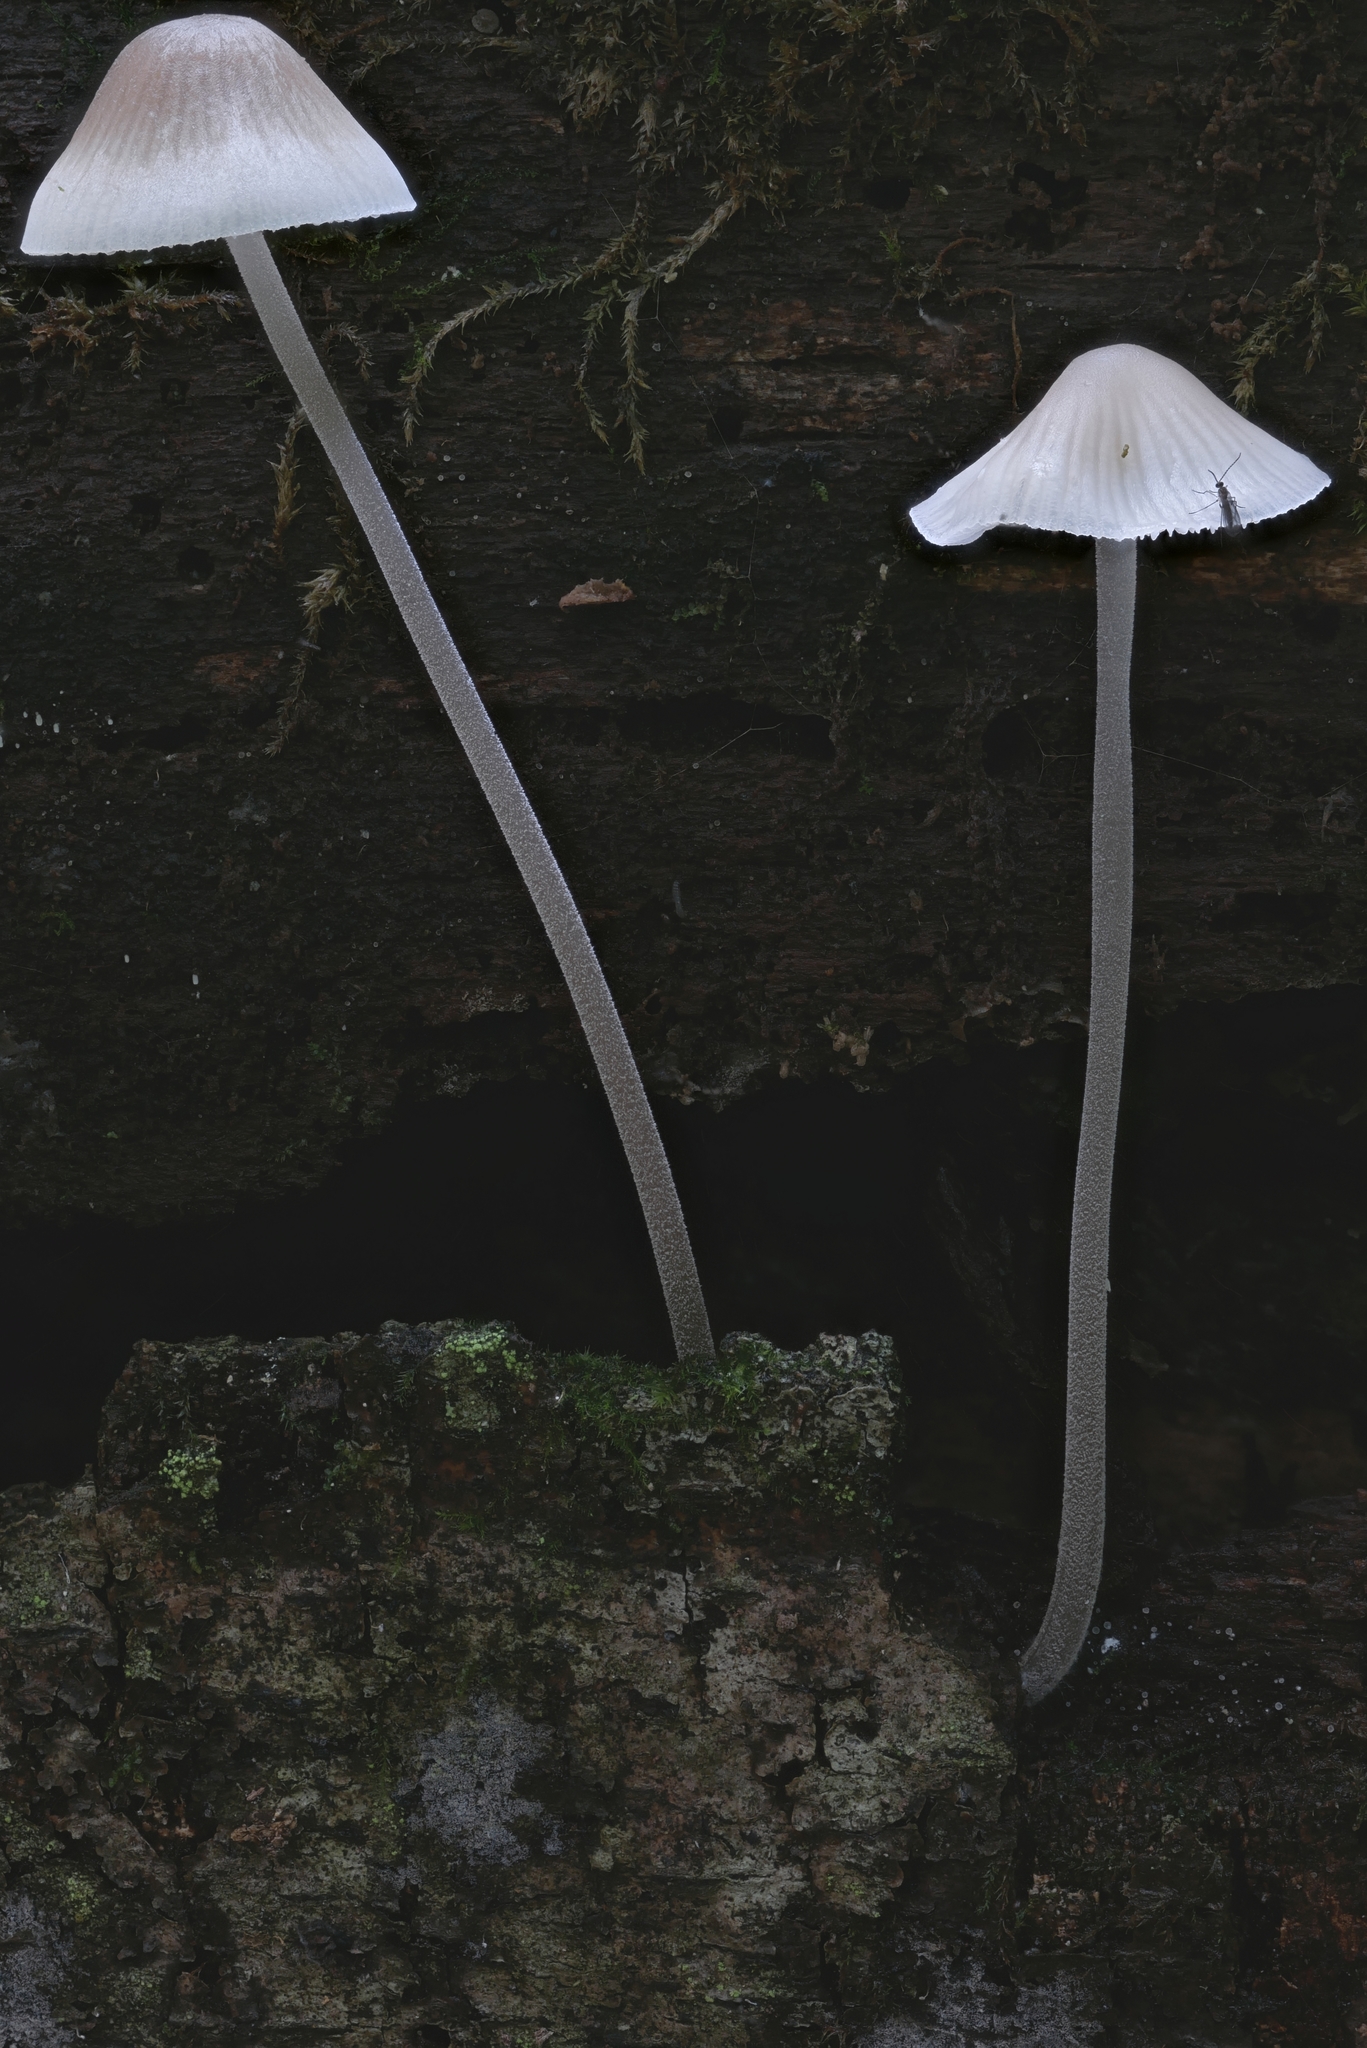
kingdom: Fungi
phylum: Basidiomycota
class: Agaricomycetes
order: Agaricales
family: Mycenaceae
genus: Mycena
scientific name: Mycena subcaerulea
